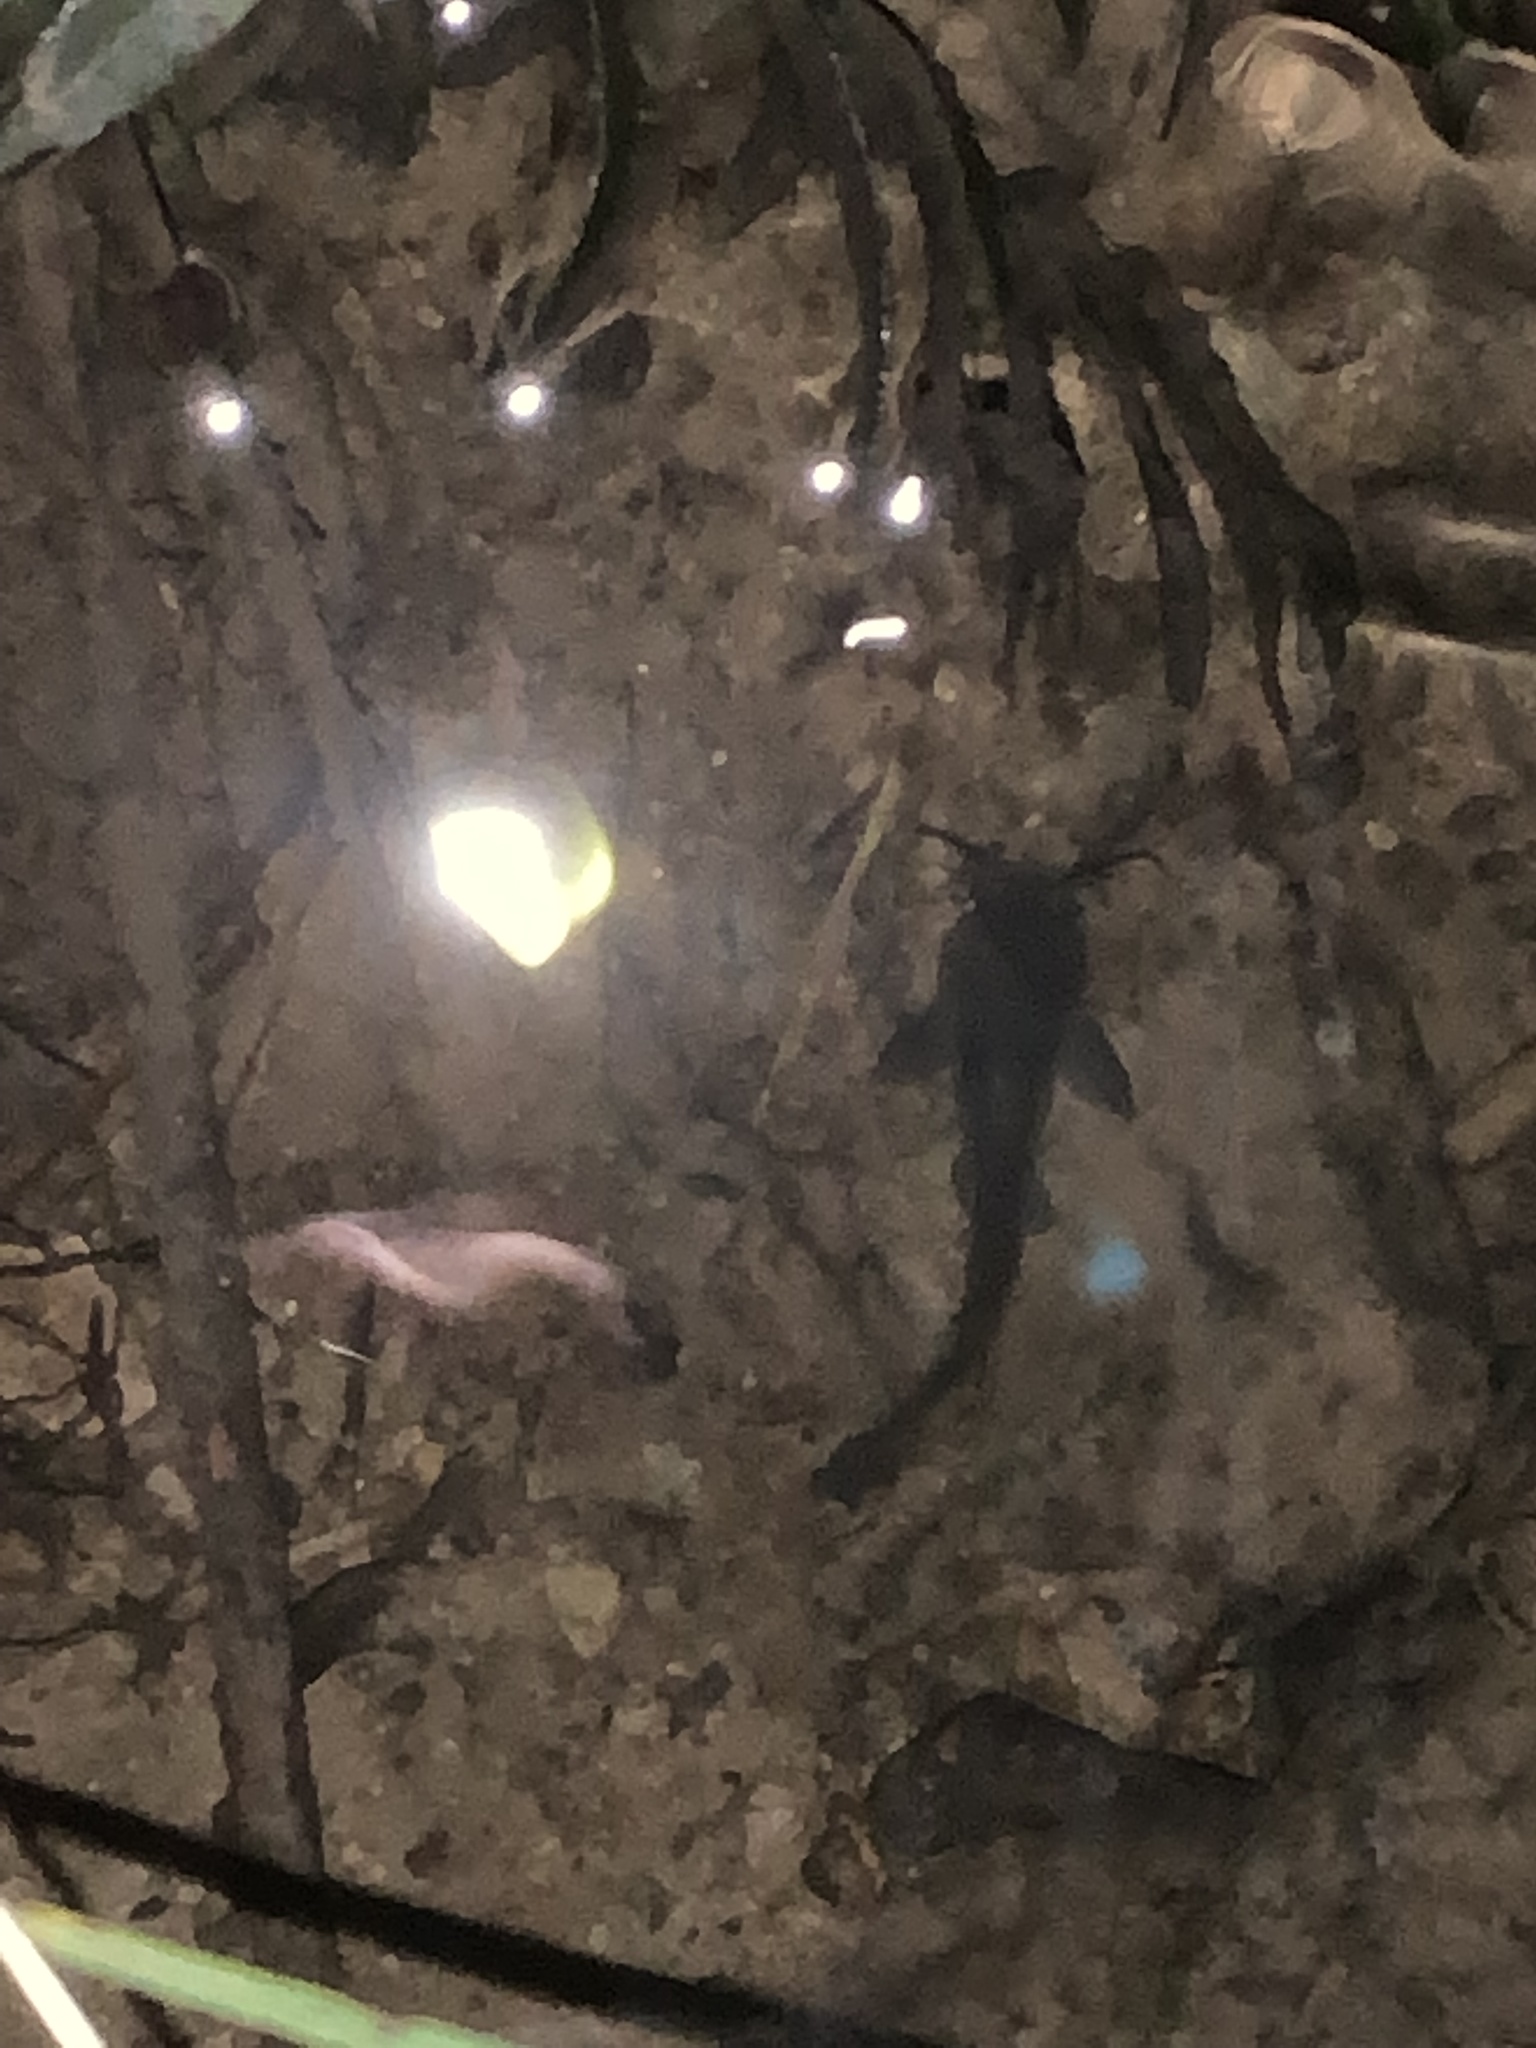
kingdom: Animalia
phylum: Chordata
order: Siluriformes
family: Ictaluridae
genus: Ameiurus
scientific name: Ameiurus
